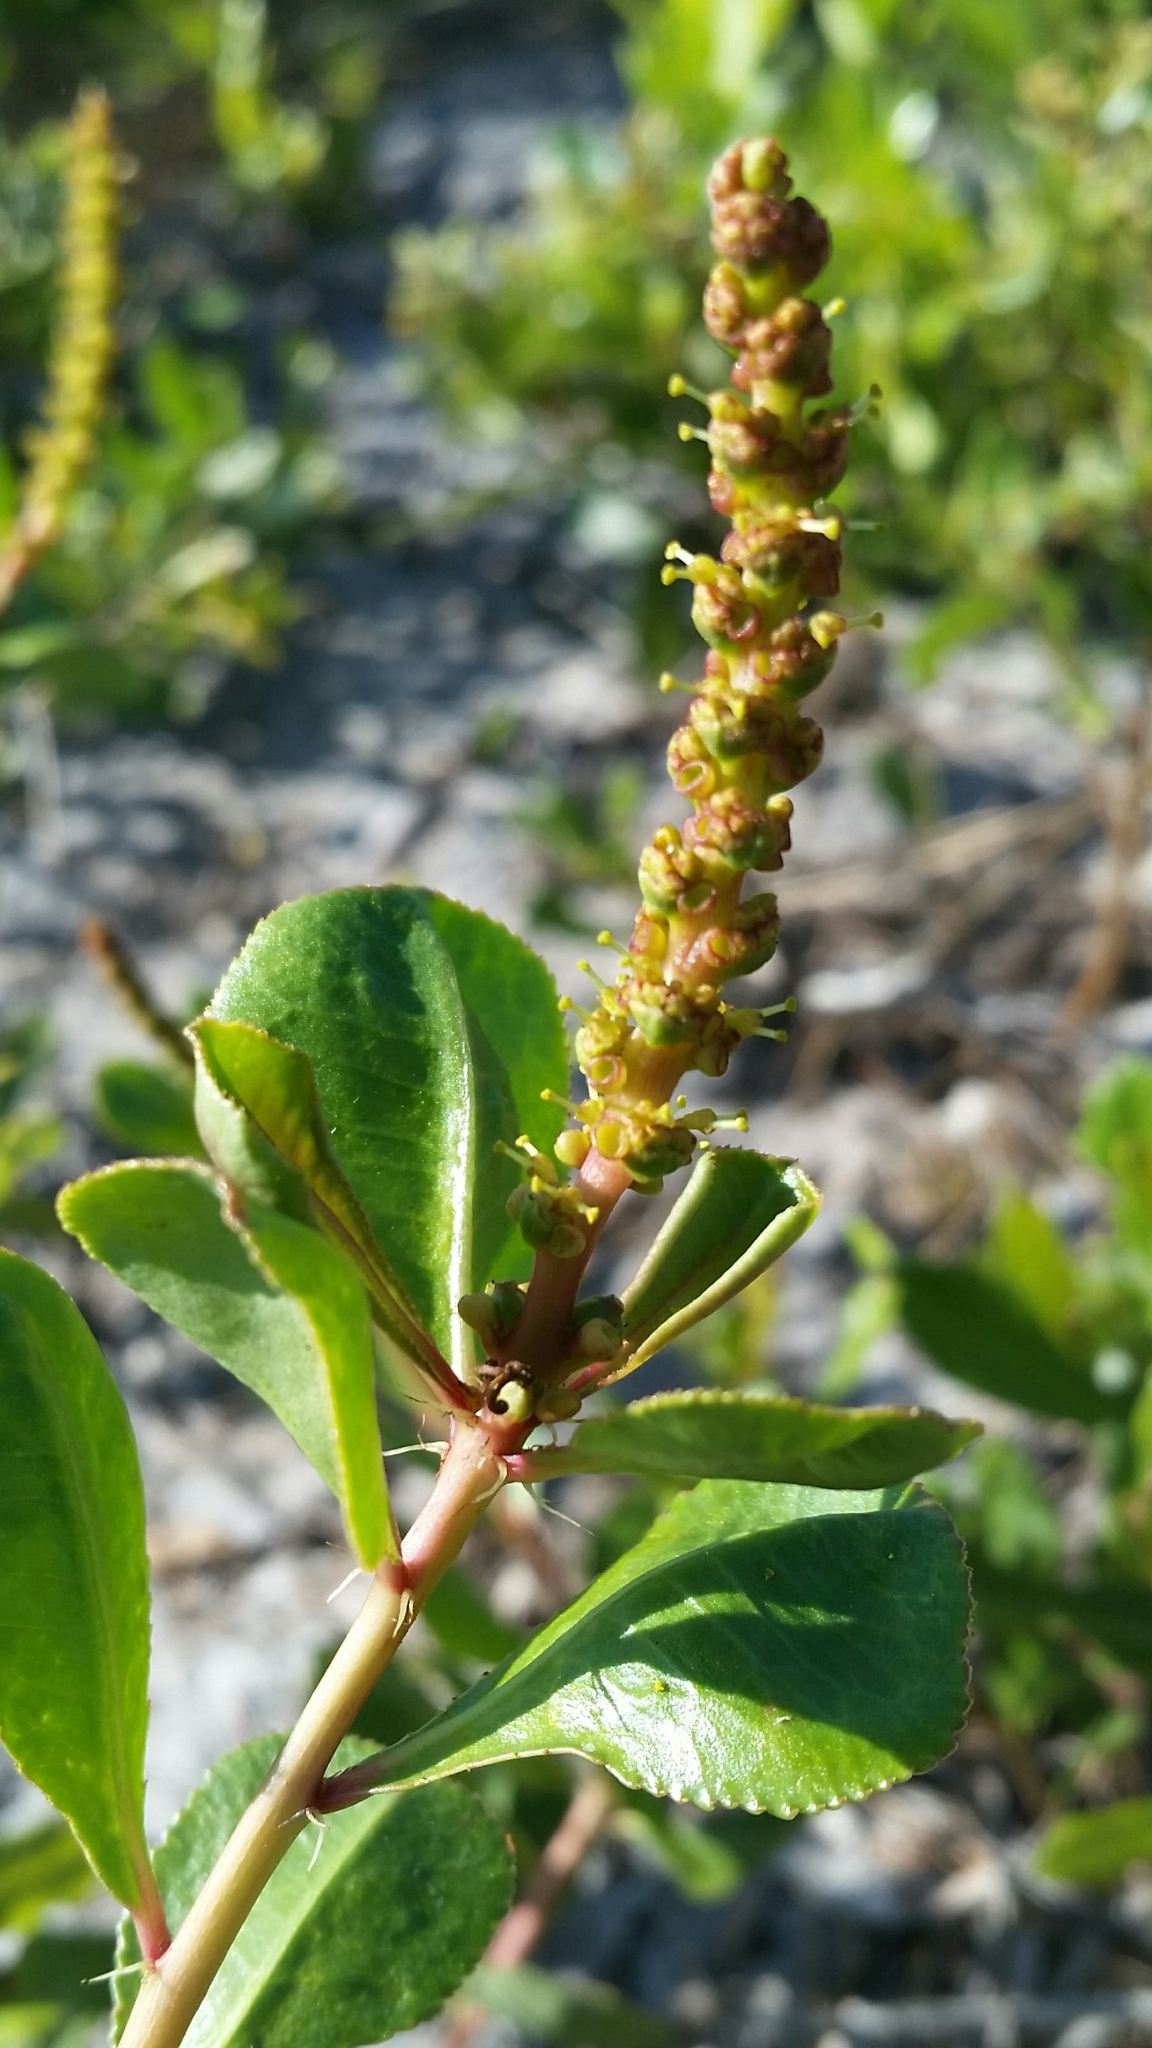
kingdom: Plantae
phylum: Tracheophyta
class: Magnoliopsida
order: Malpighiales
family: Euphorbiaceae
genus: Stillingia
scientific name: Stillingia sylvatica
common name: Queen's-delight
